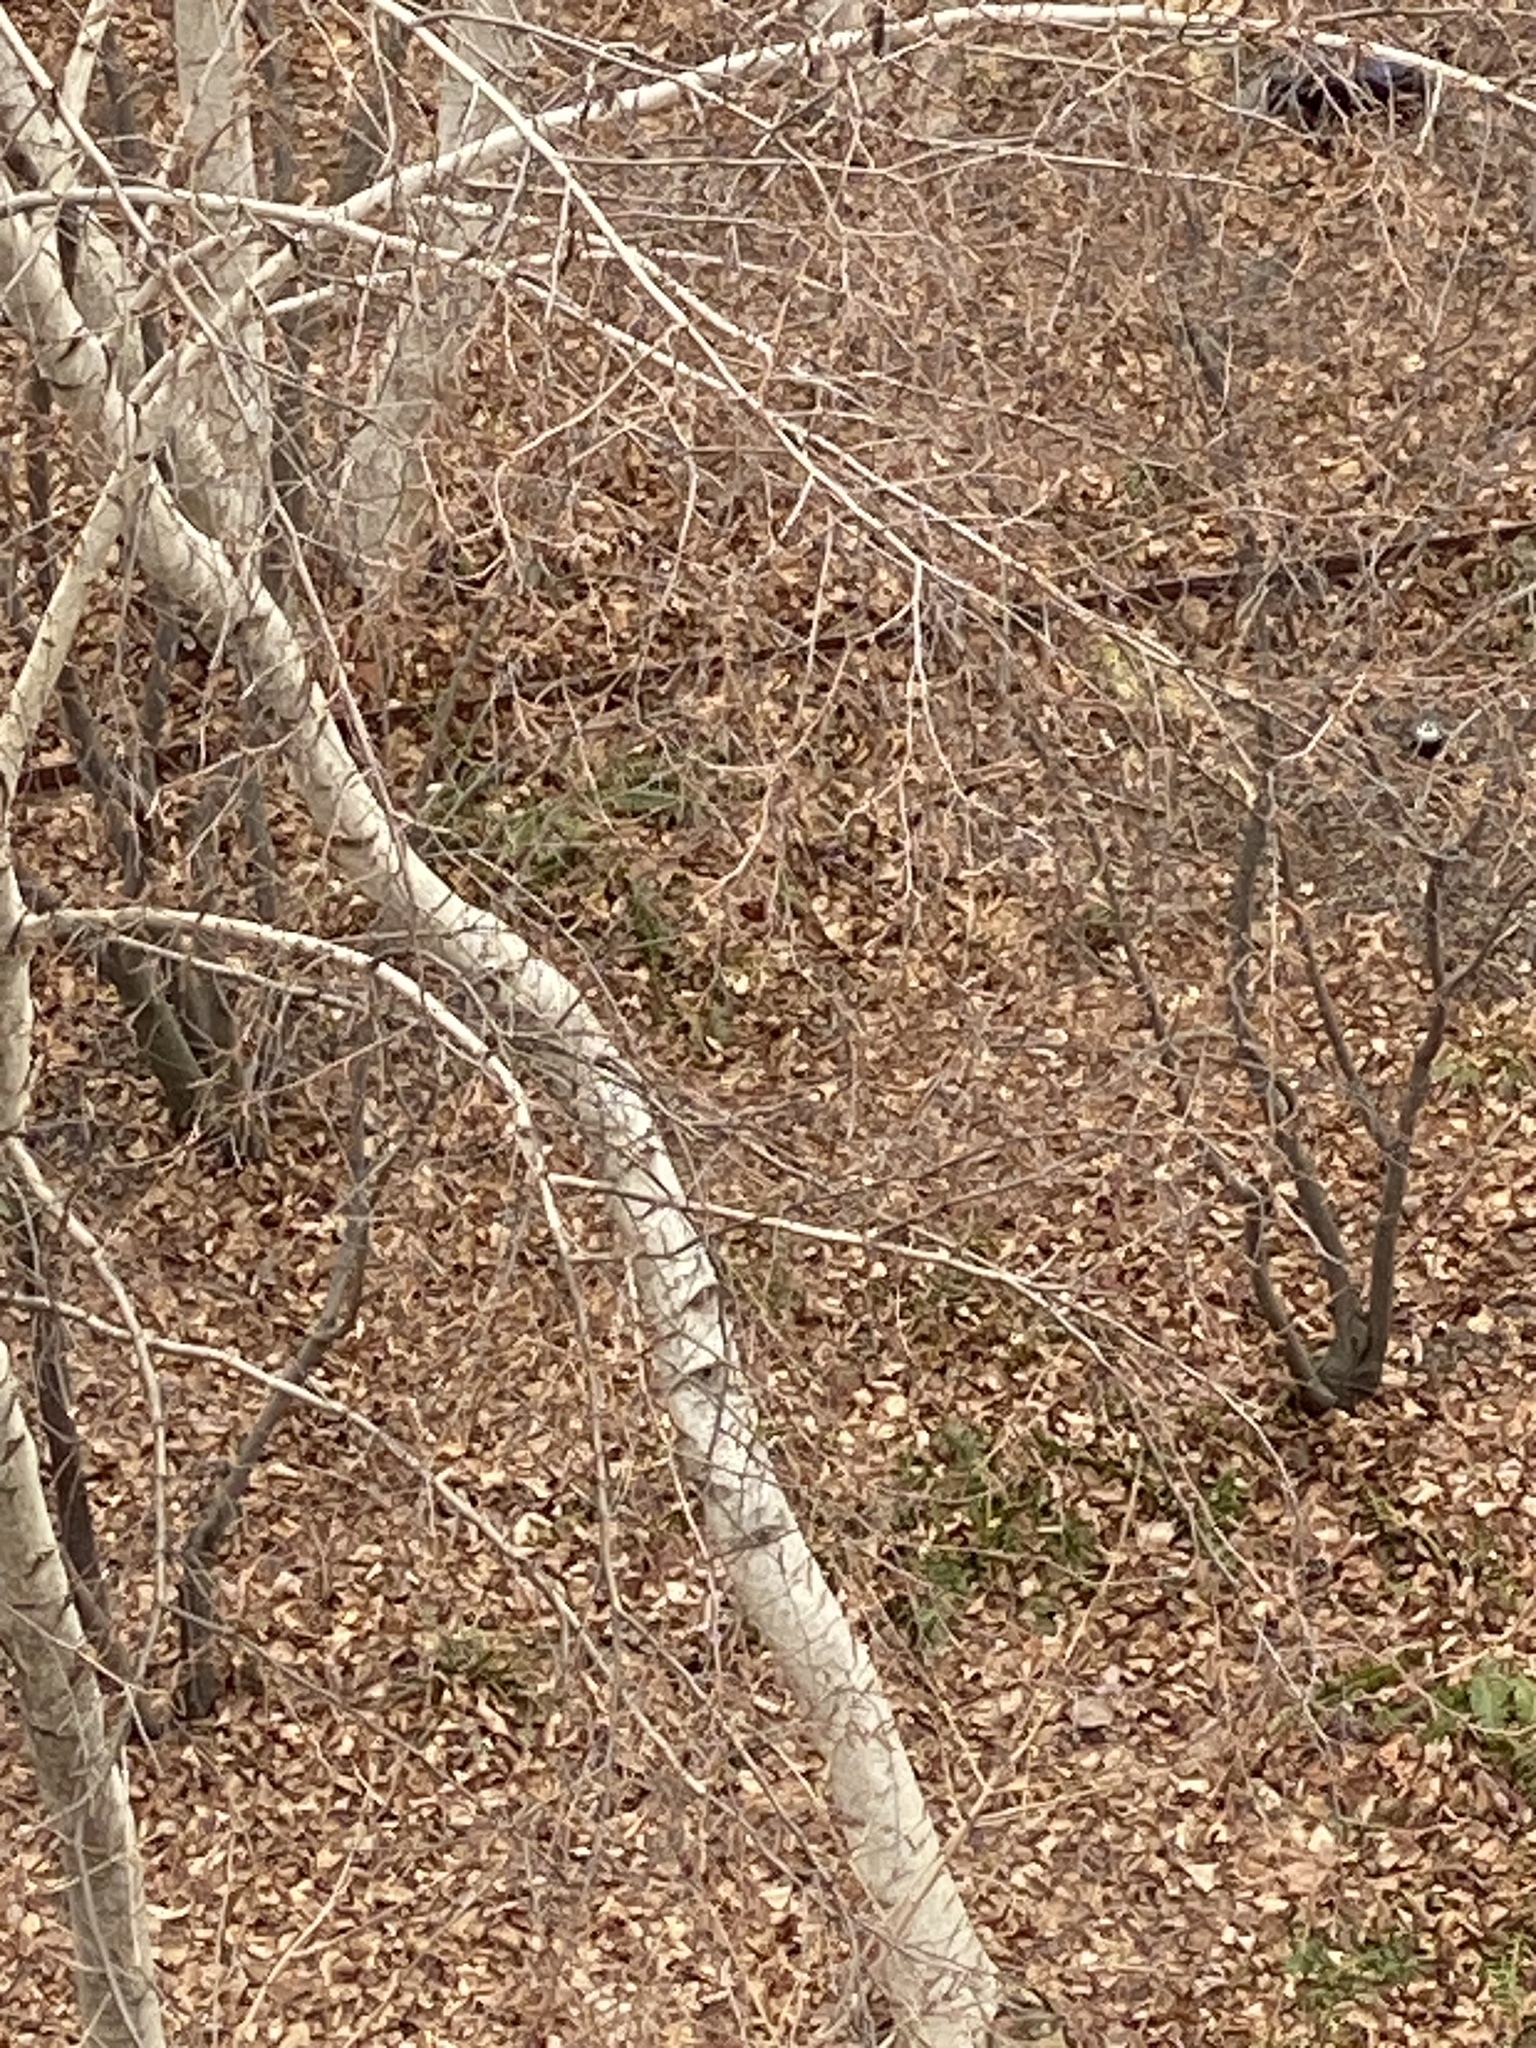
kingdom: Plantae
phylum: Tracheophyta
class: Magnoliopsida
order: Fagales
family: Betulaceae
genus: Betula
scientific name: Betula populifolia
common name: Fire birch
